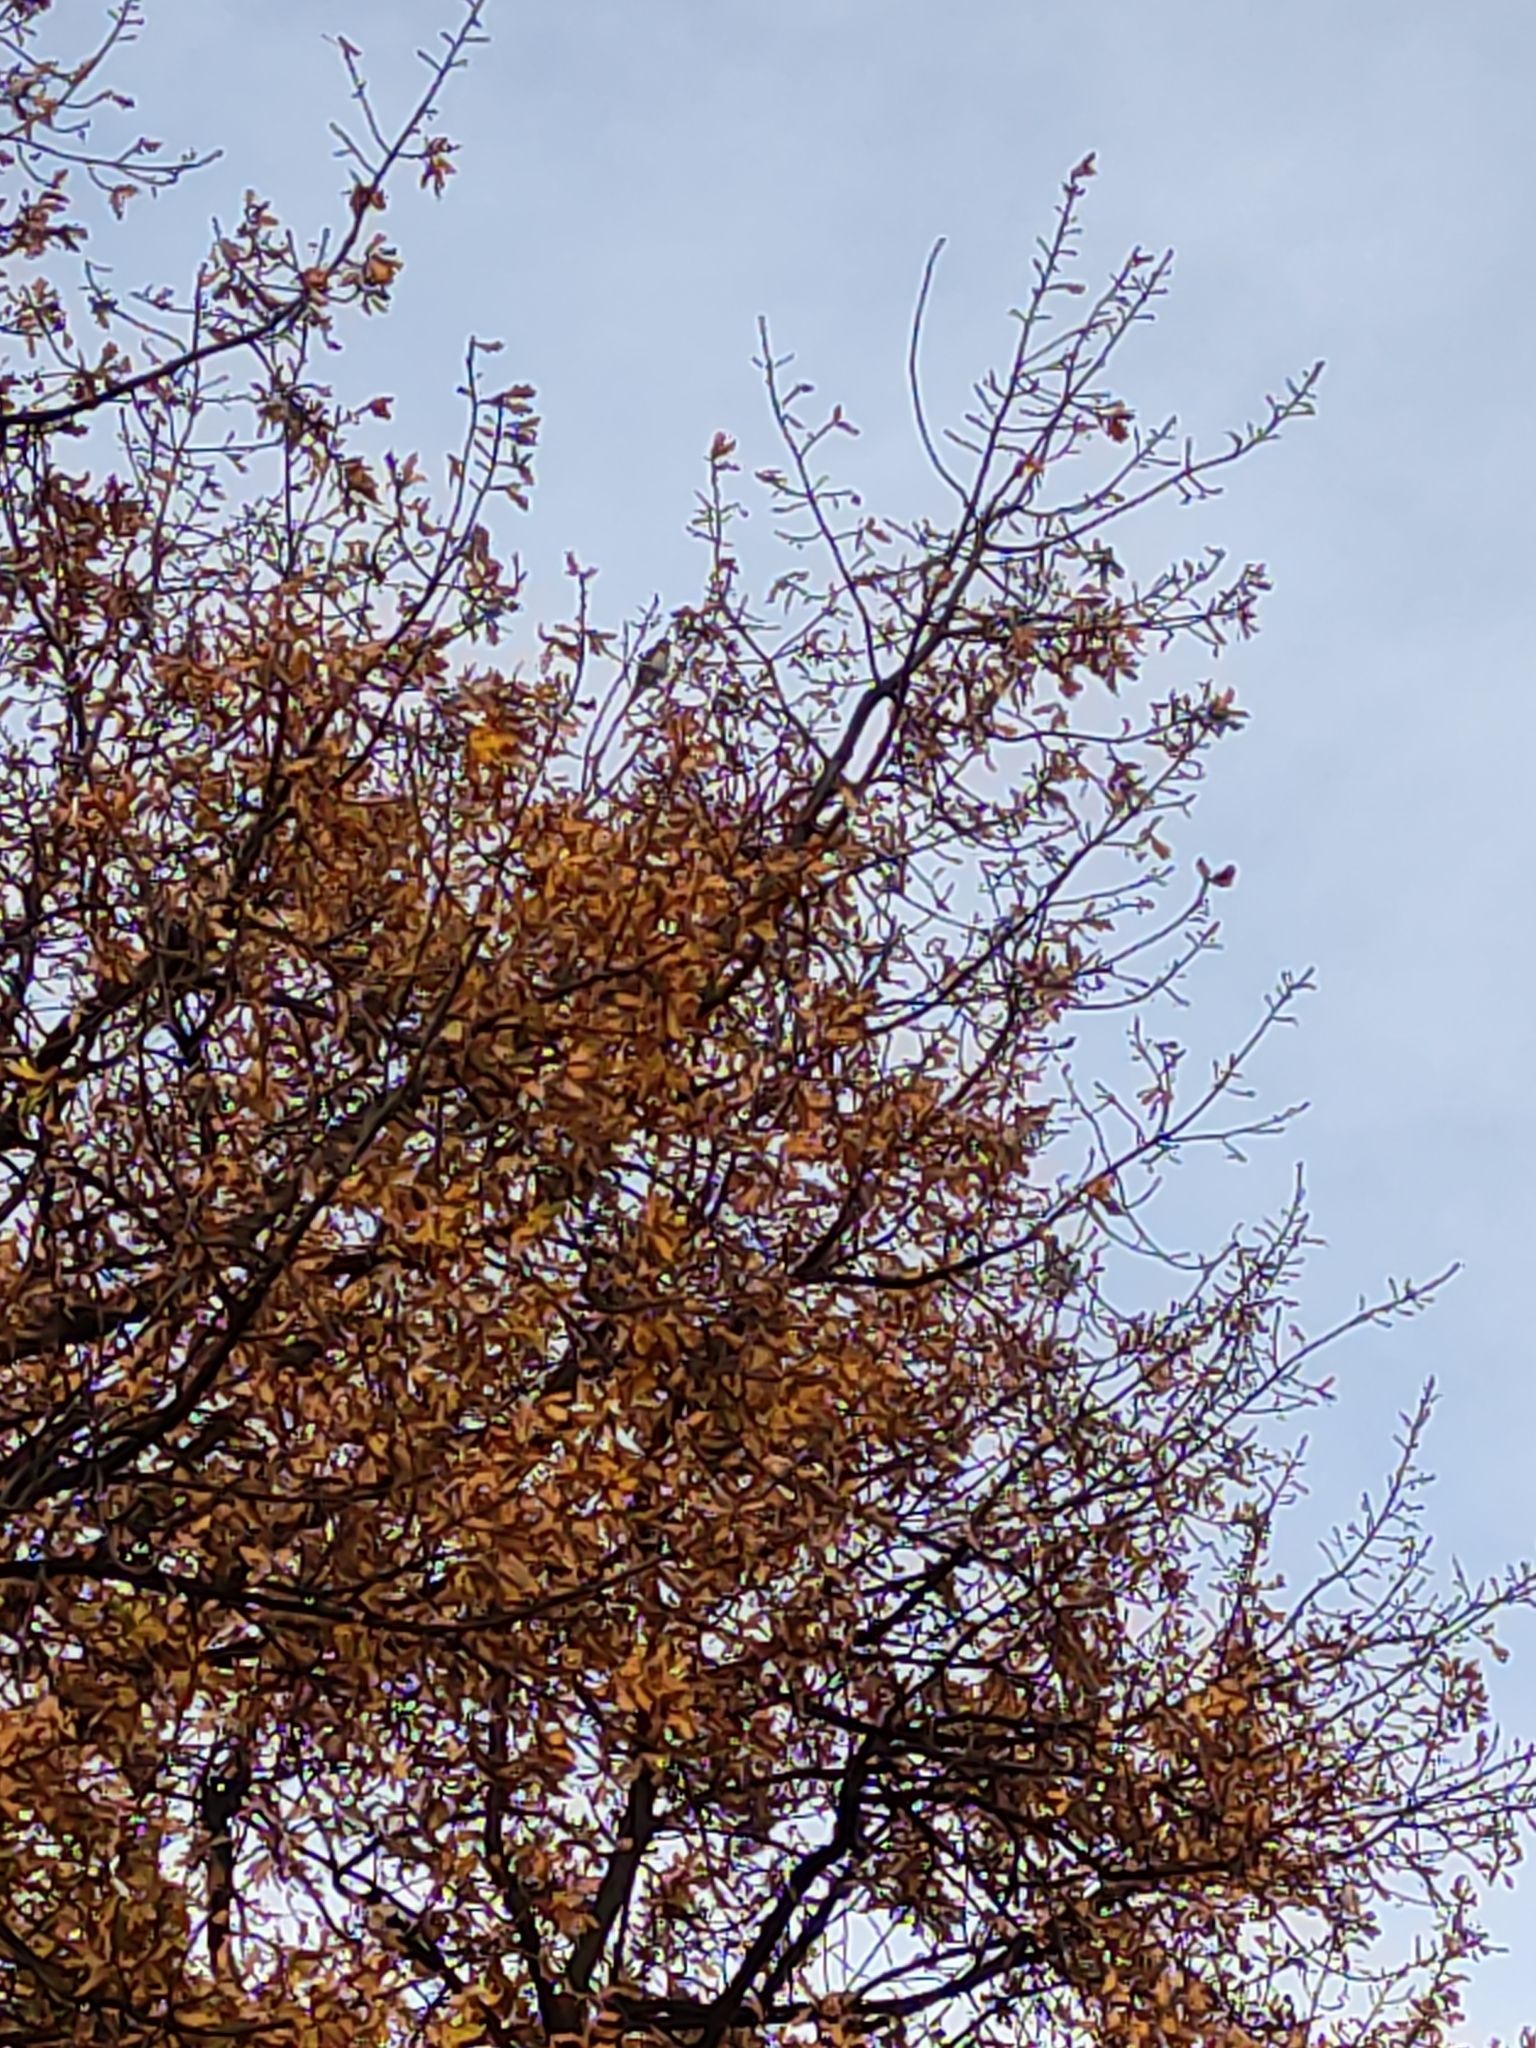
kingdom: Animalia
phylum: Chordata
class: Aves
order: Passeriformes
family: Hirundinidae
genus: Hirundo
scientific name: Hirundo neoxena
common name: Welcome swallow
